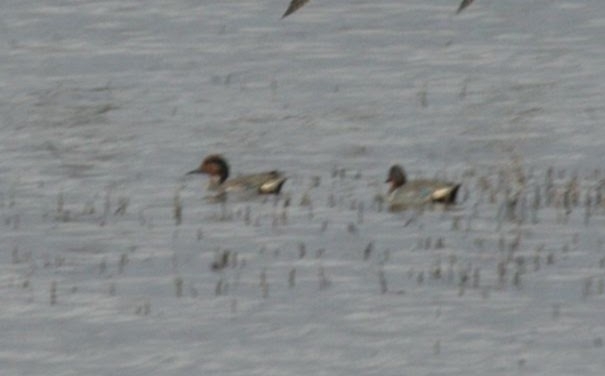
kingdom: Animalia
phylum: Chordata
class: Aves
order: Anseriformes
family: Anatidae
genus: Anas
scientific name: Anas crecca
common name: Eurasian teal
